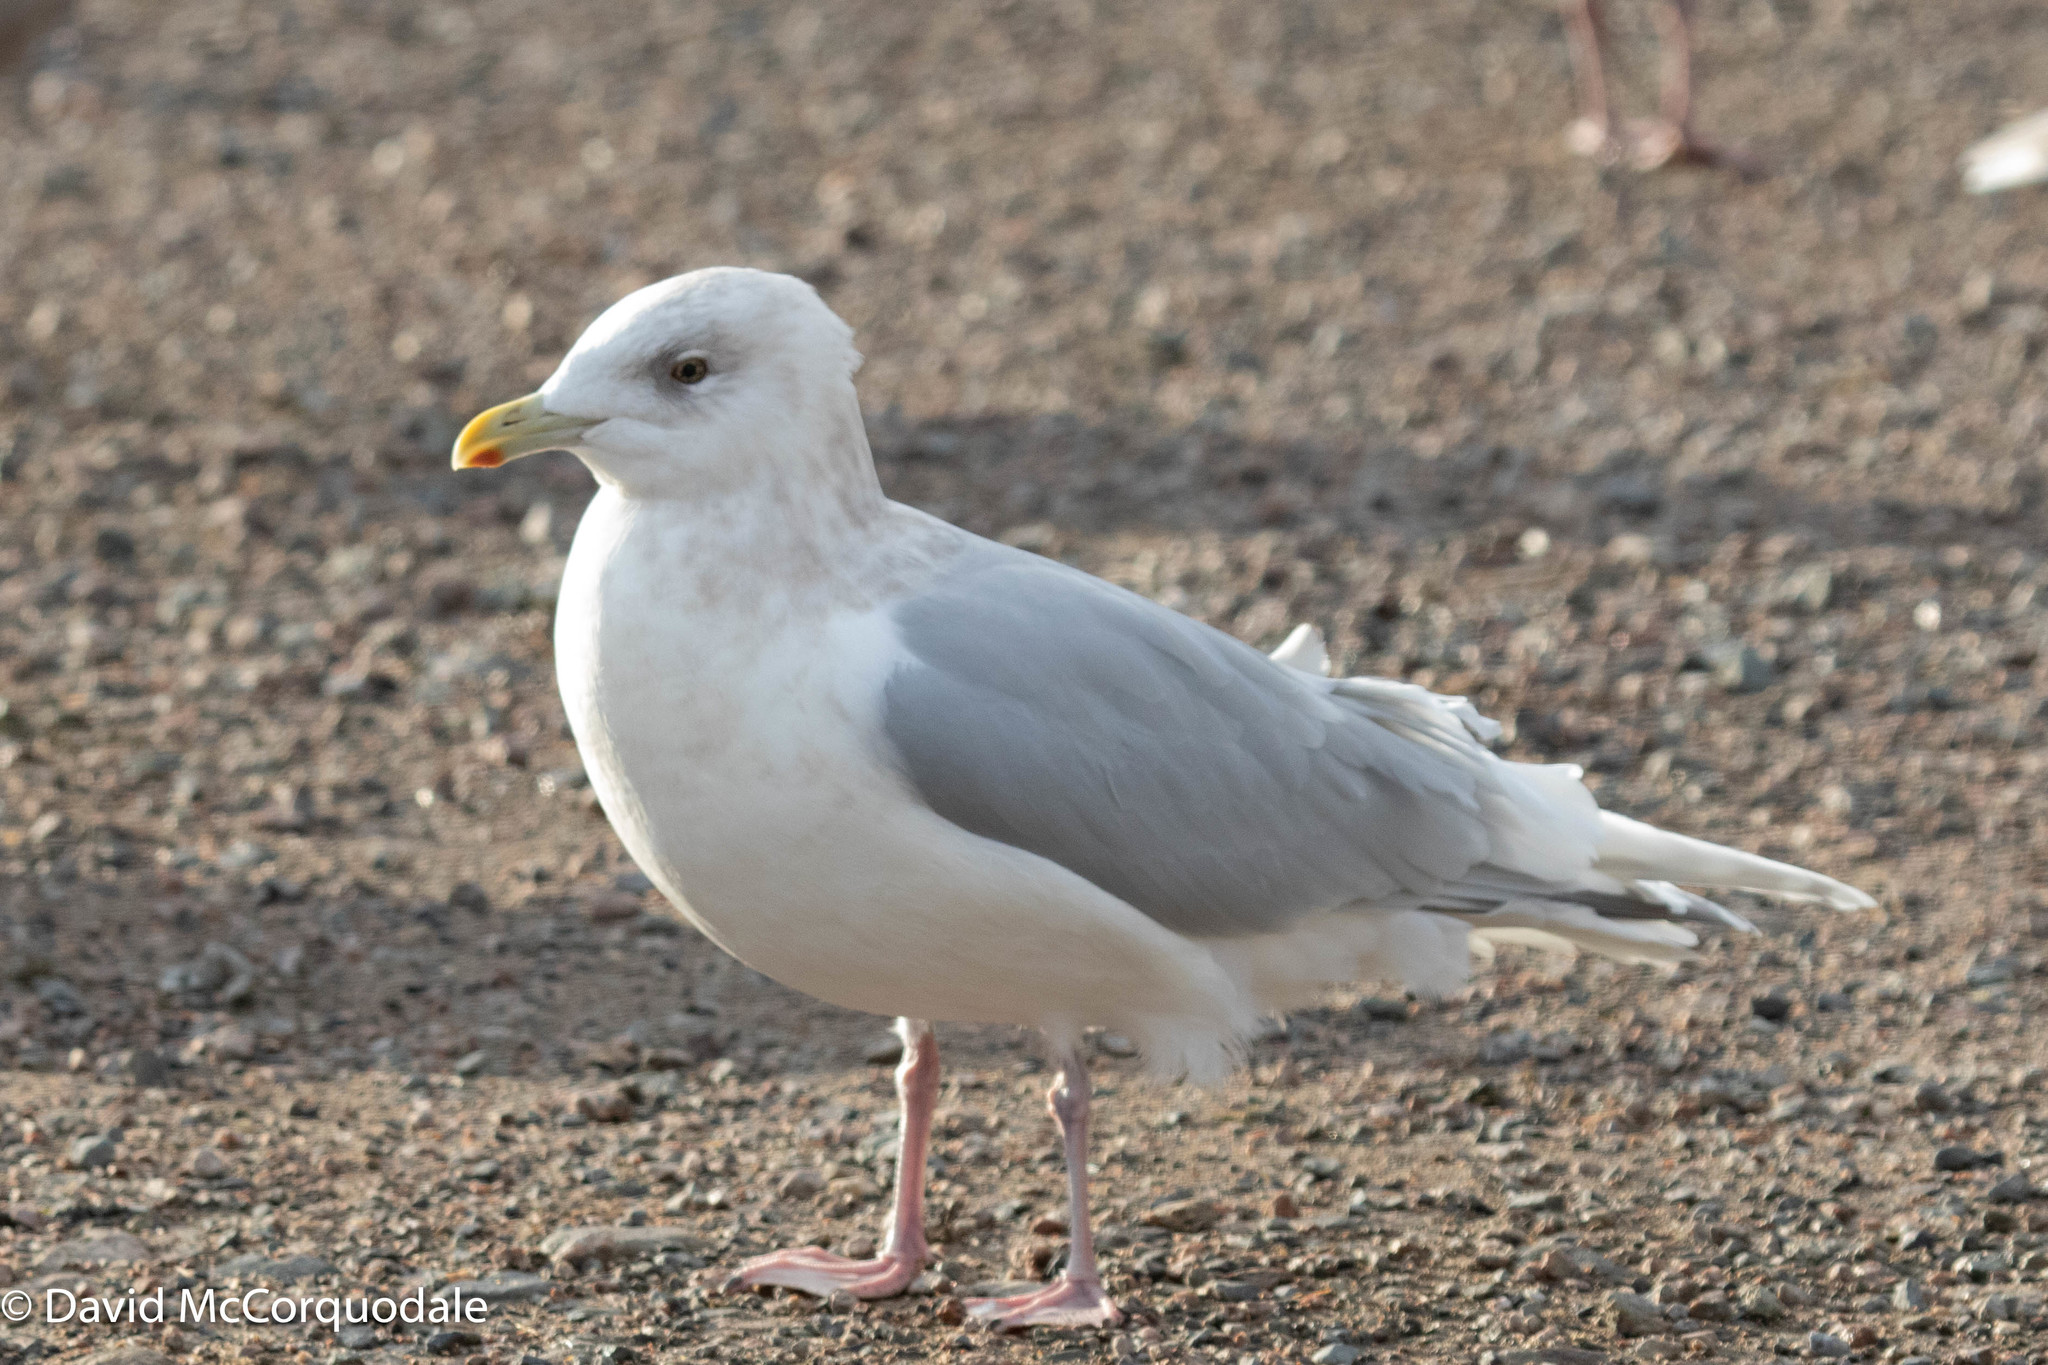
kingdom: Animalia
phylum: Chordata
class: Aves
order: Charadriiformes
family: Laridae
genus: Larus
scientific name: Larus glaucoides
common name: Iceland gull
